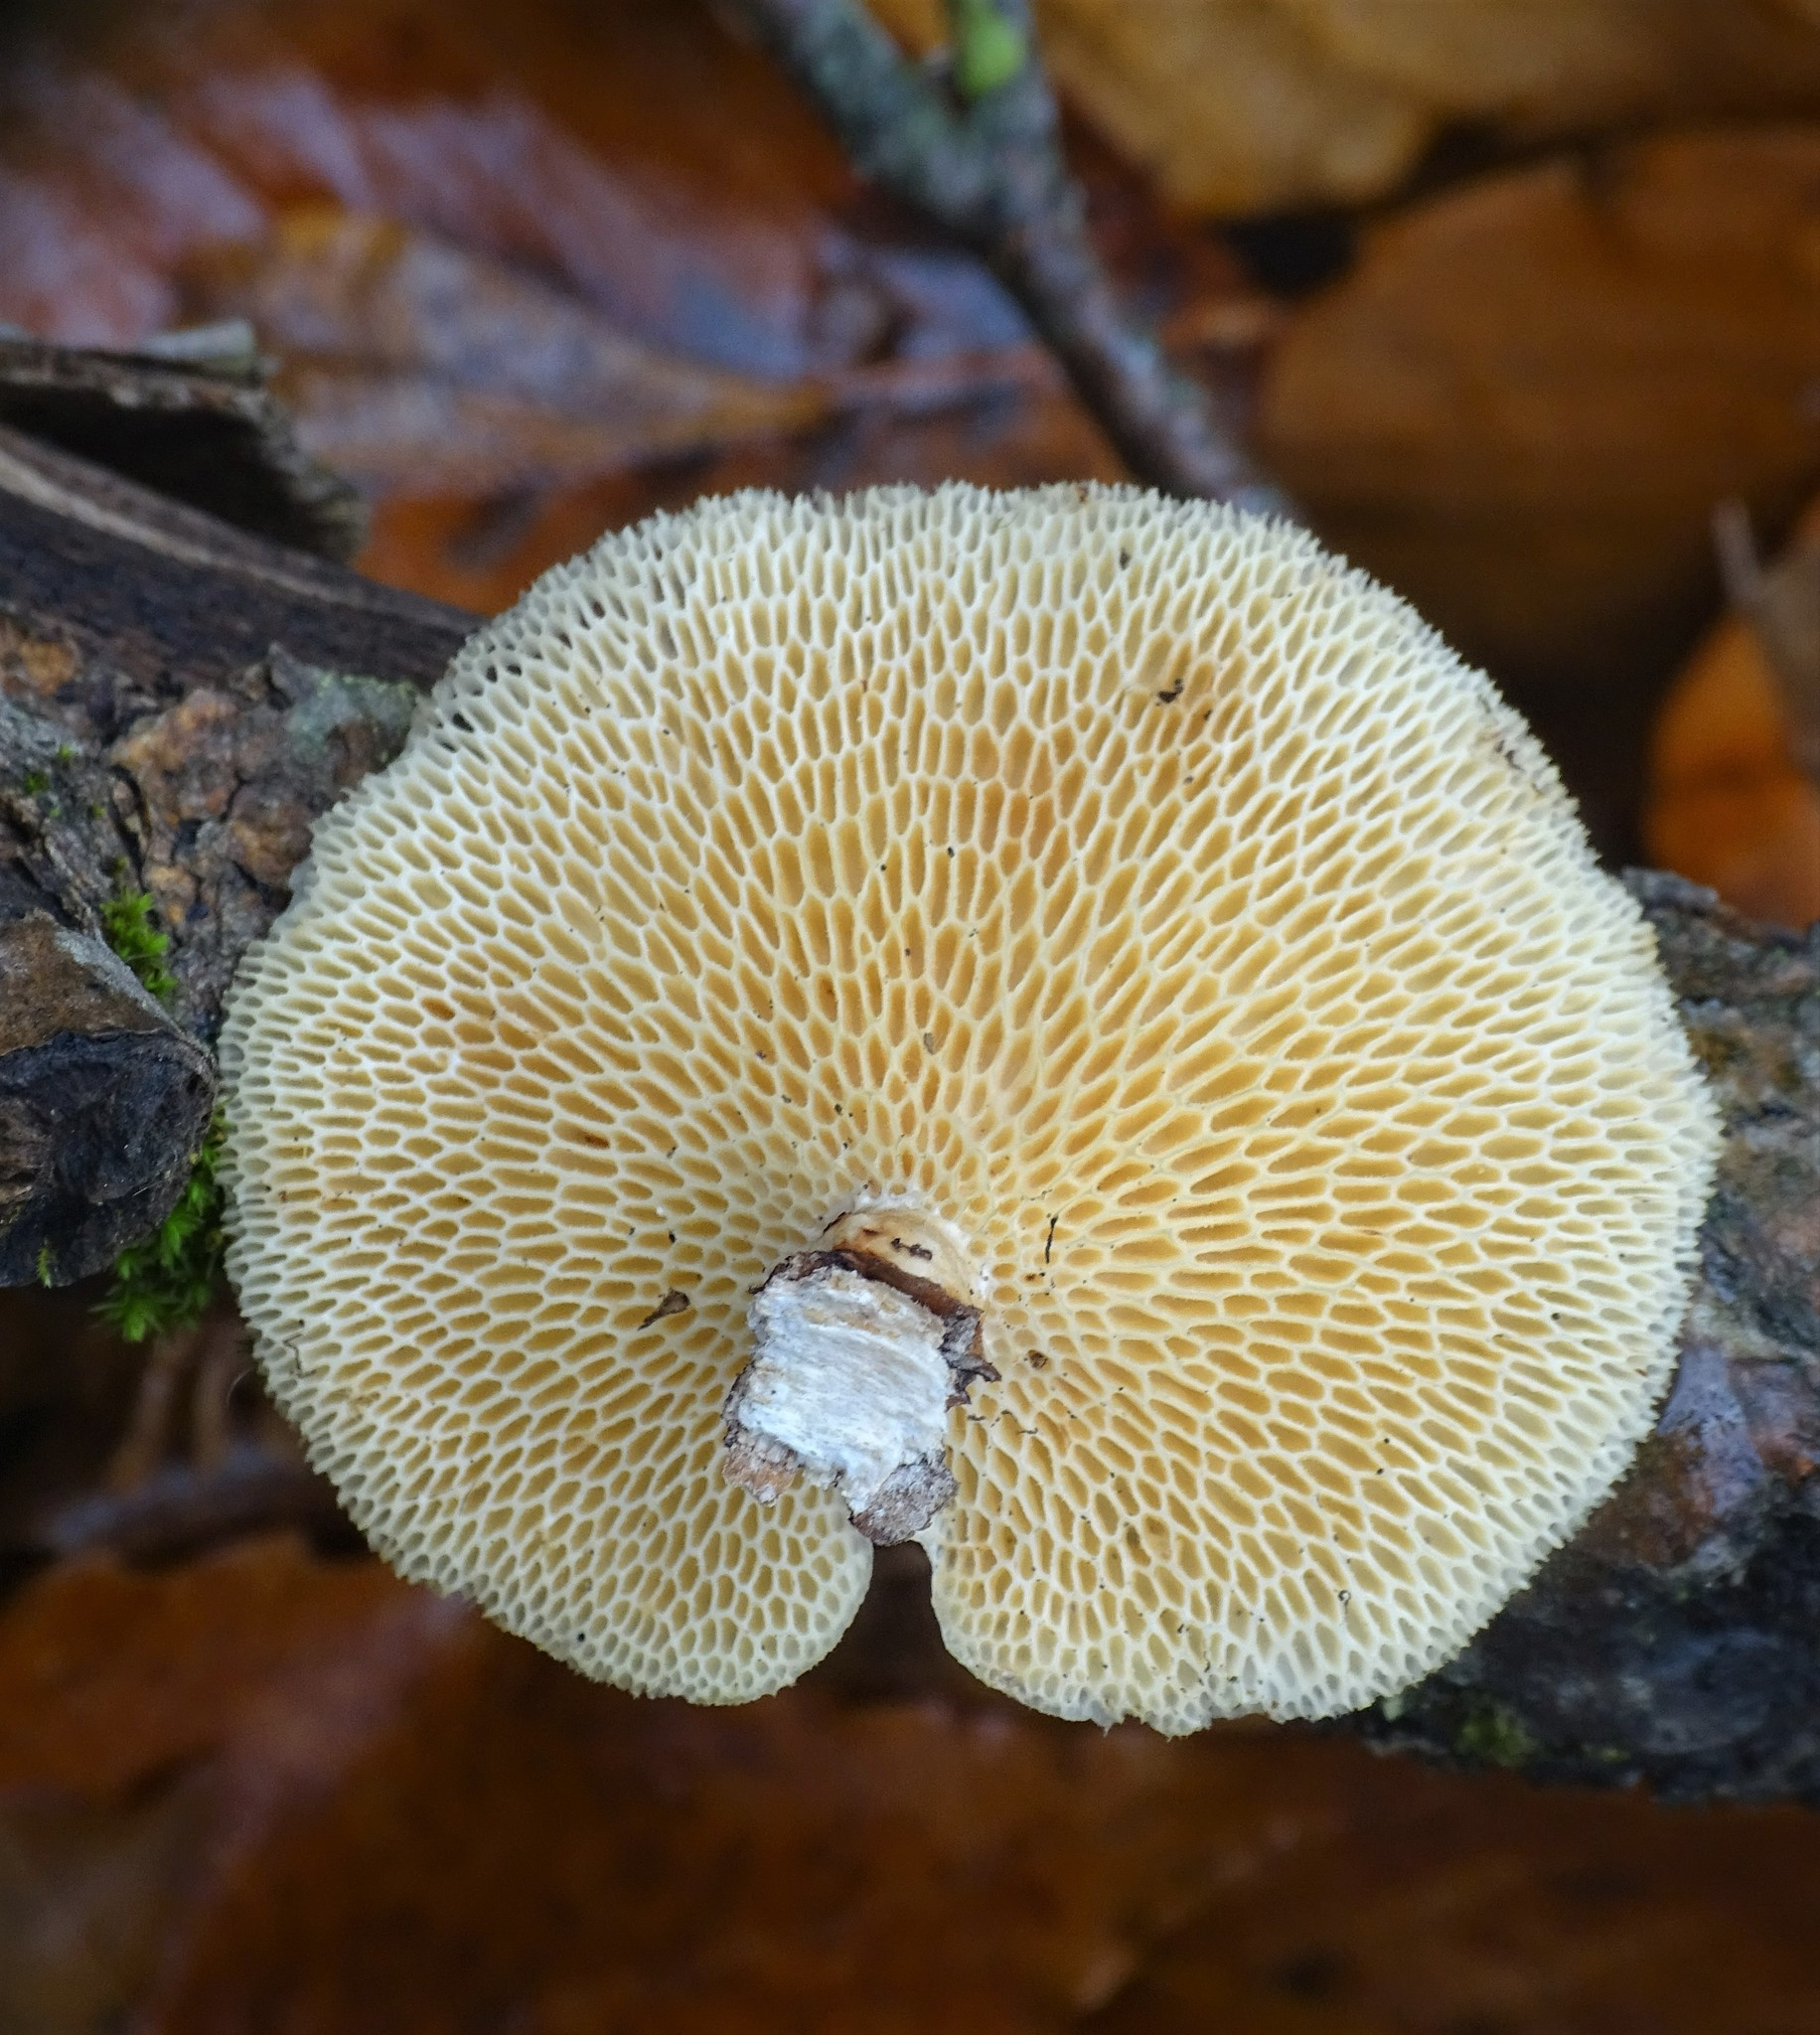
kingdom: Fungi
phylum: Basidiomycota
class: Agaricomycetes
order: Polyporales
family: Polyporaceae
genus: Neofavolus
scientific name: Neofavolus alveolaris
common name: Hexagonal-pored polypore
